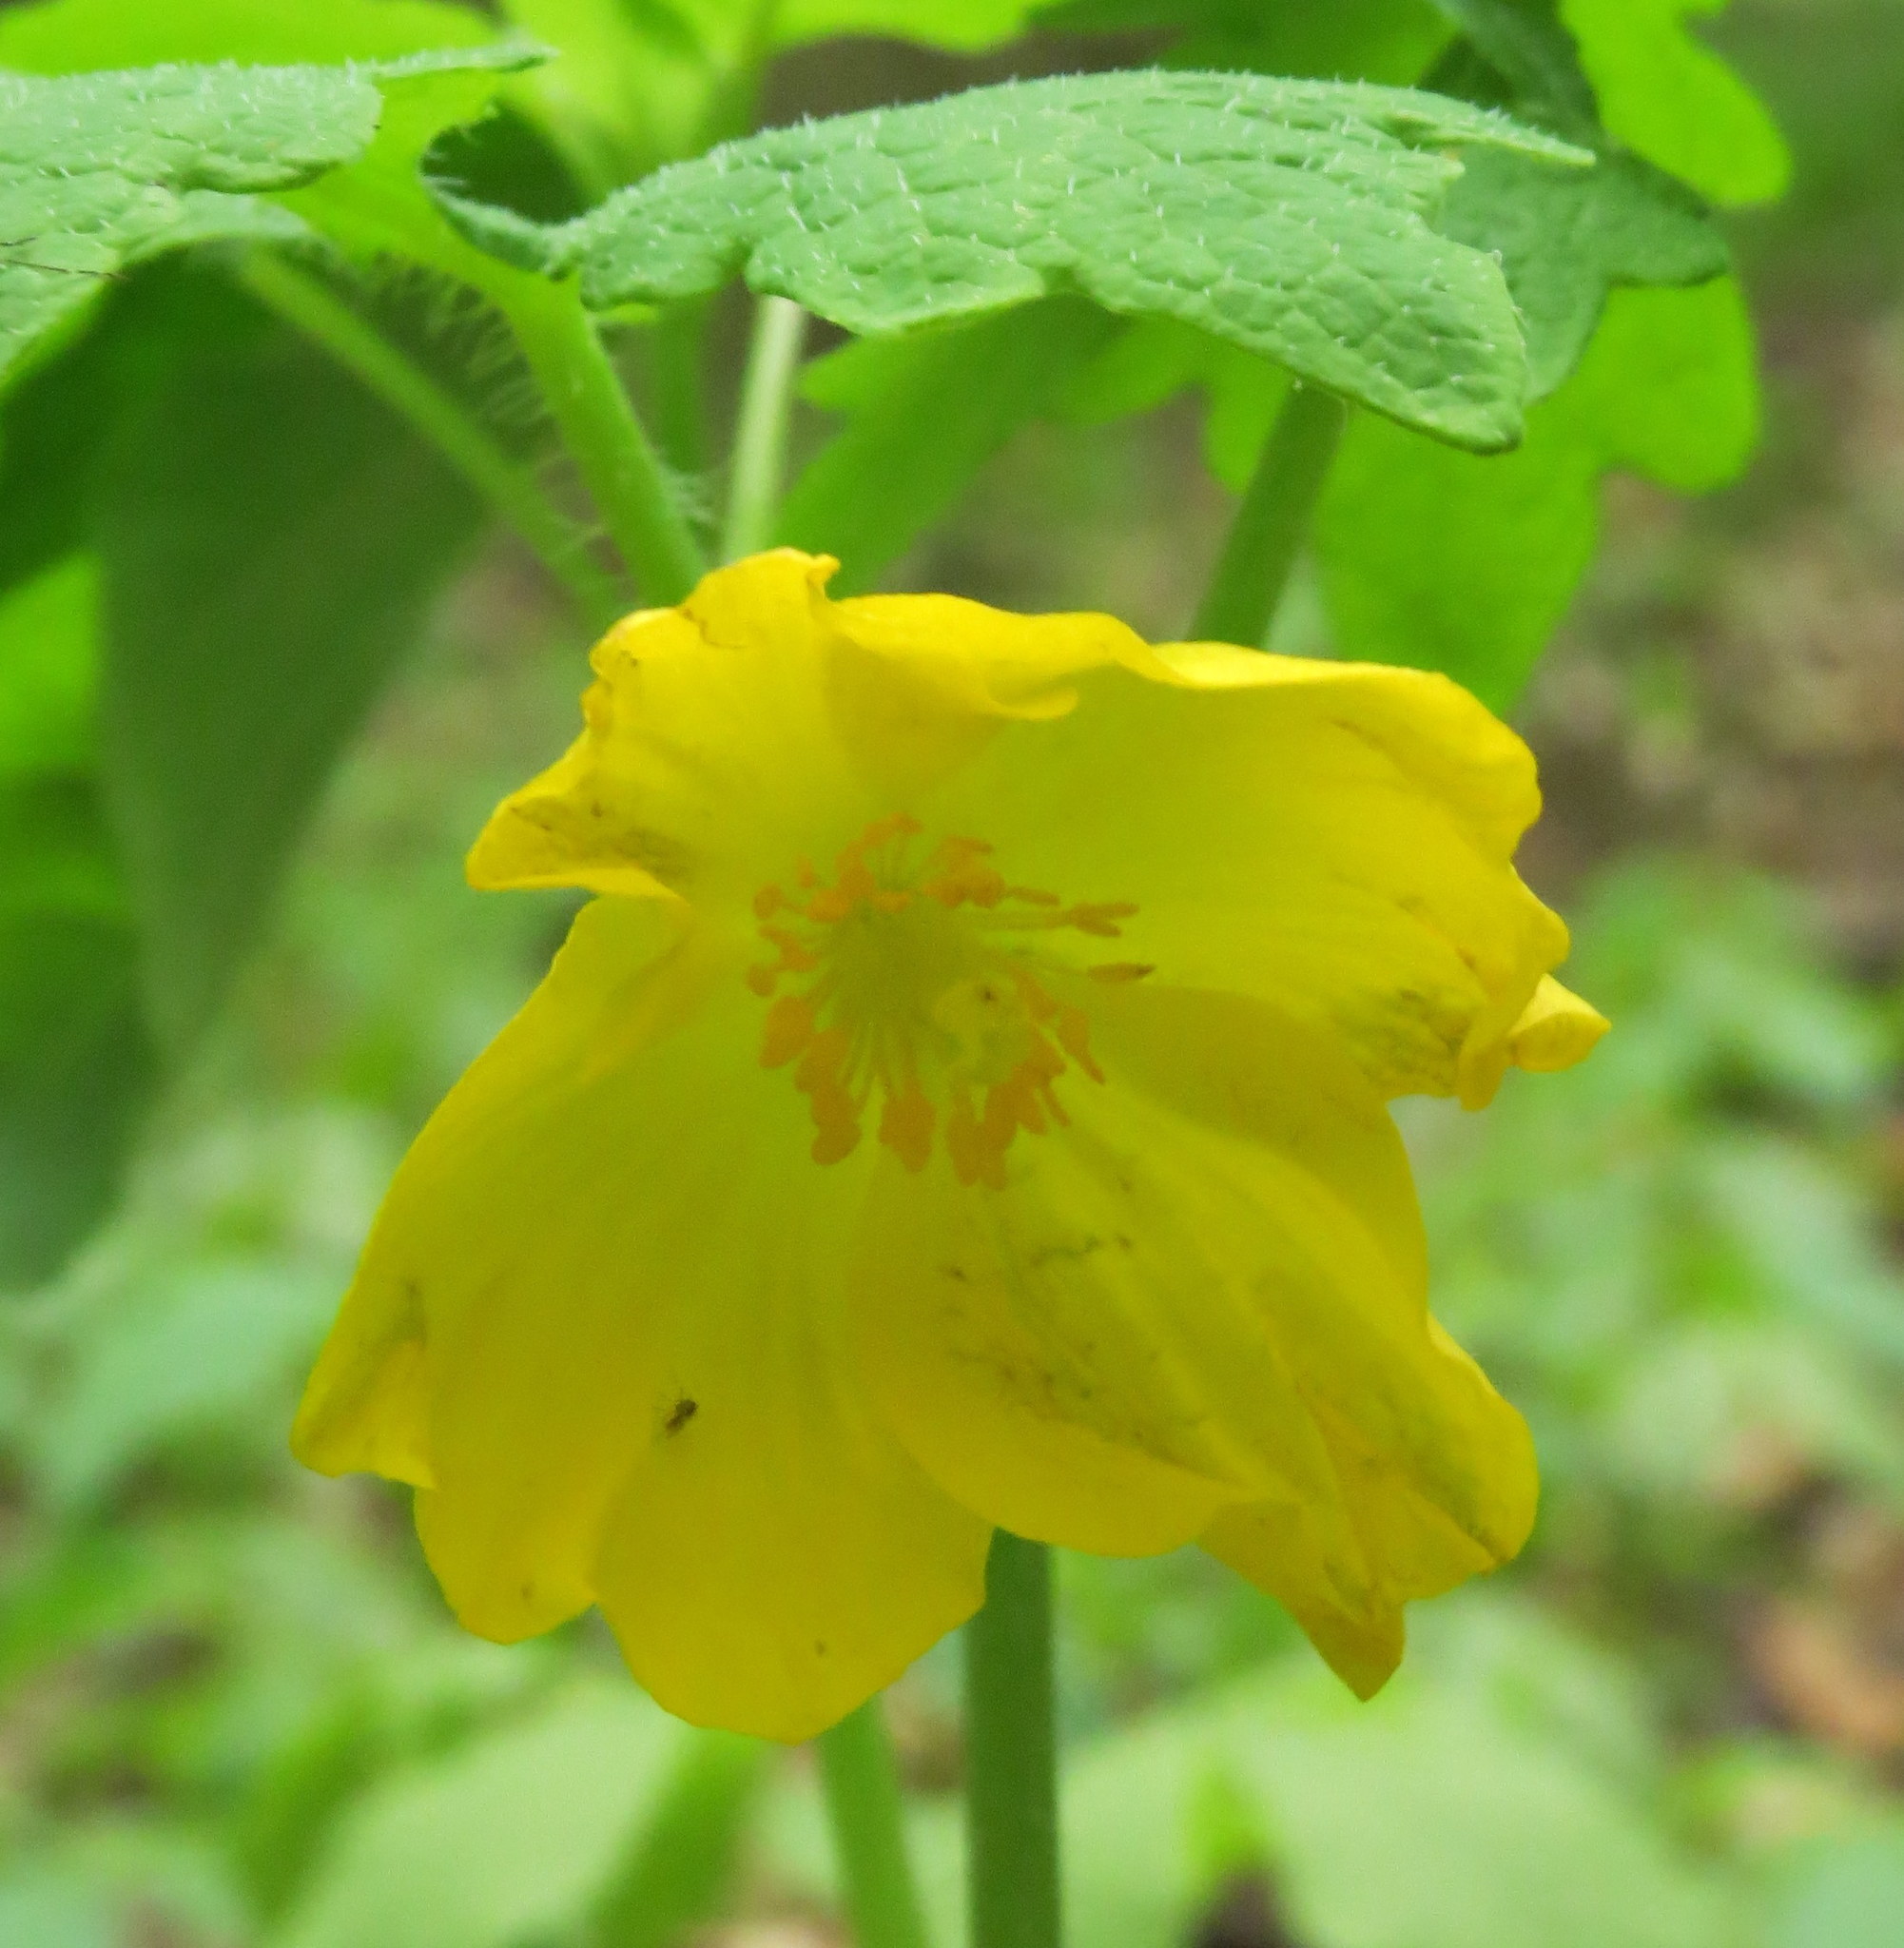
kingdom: Plantae
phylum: Tracheophyta
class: Magnoliopsida
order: Ranunculales
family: Papaveraceae
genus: Stylophorum
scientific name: Stylophorum diphyllum
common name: Celandine poppy
